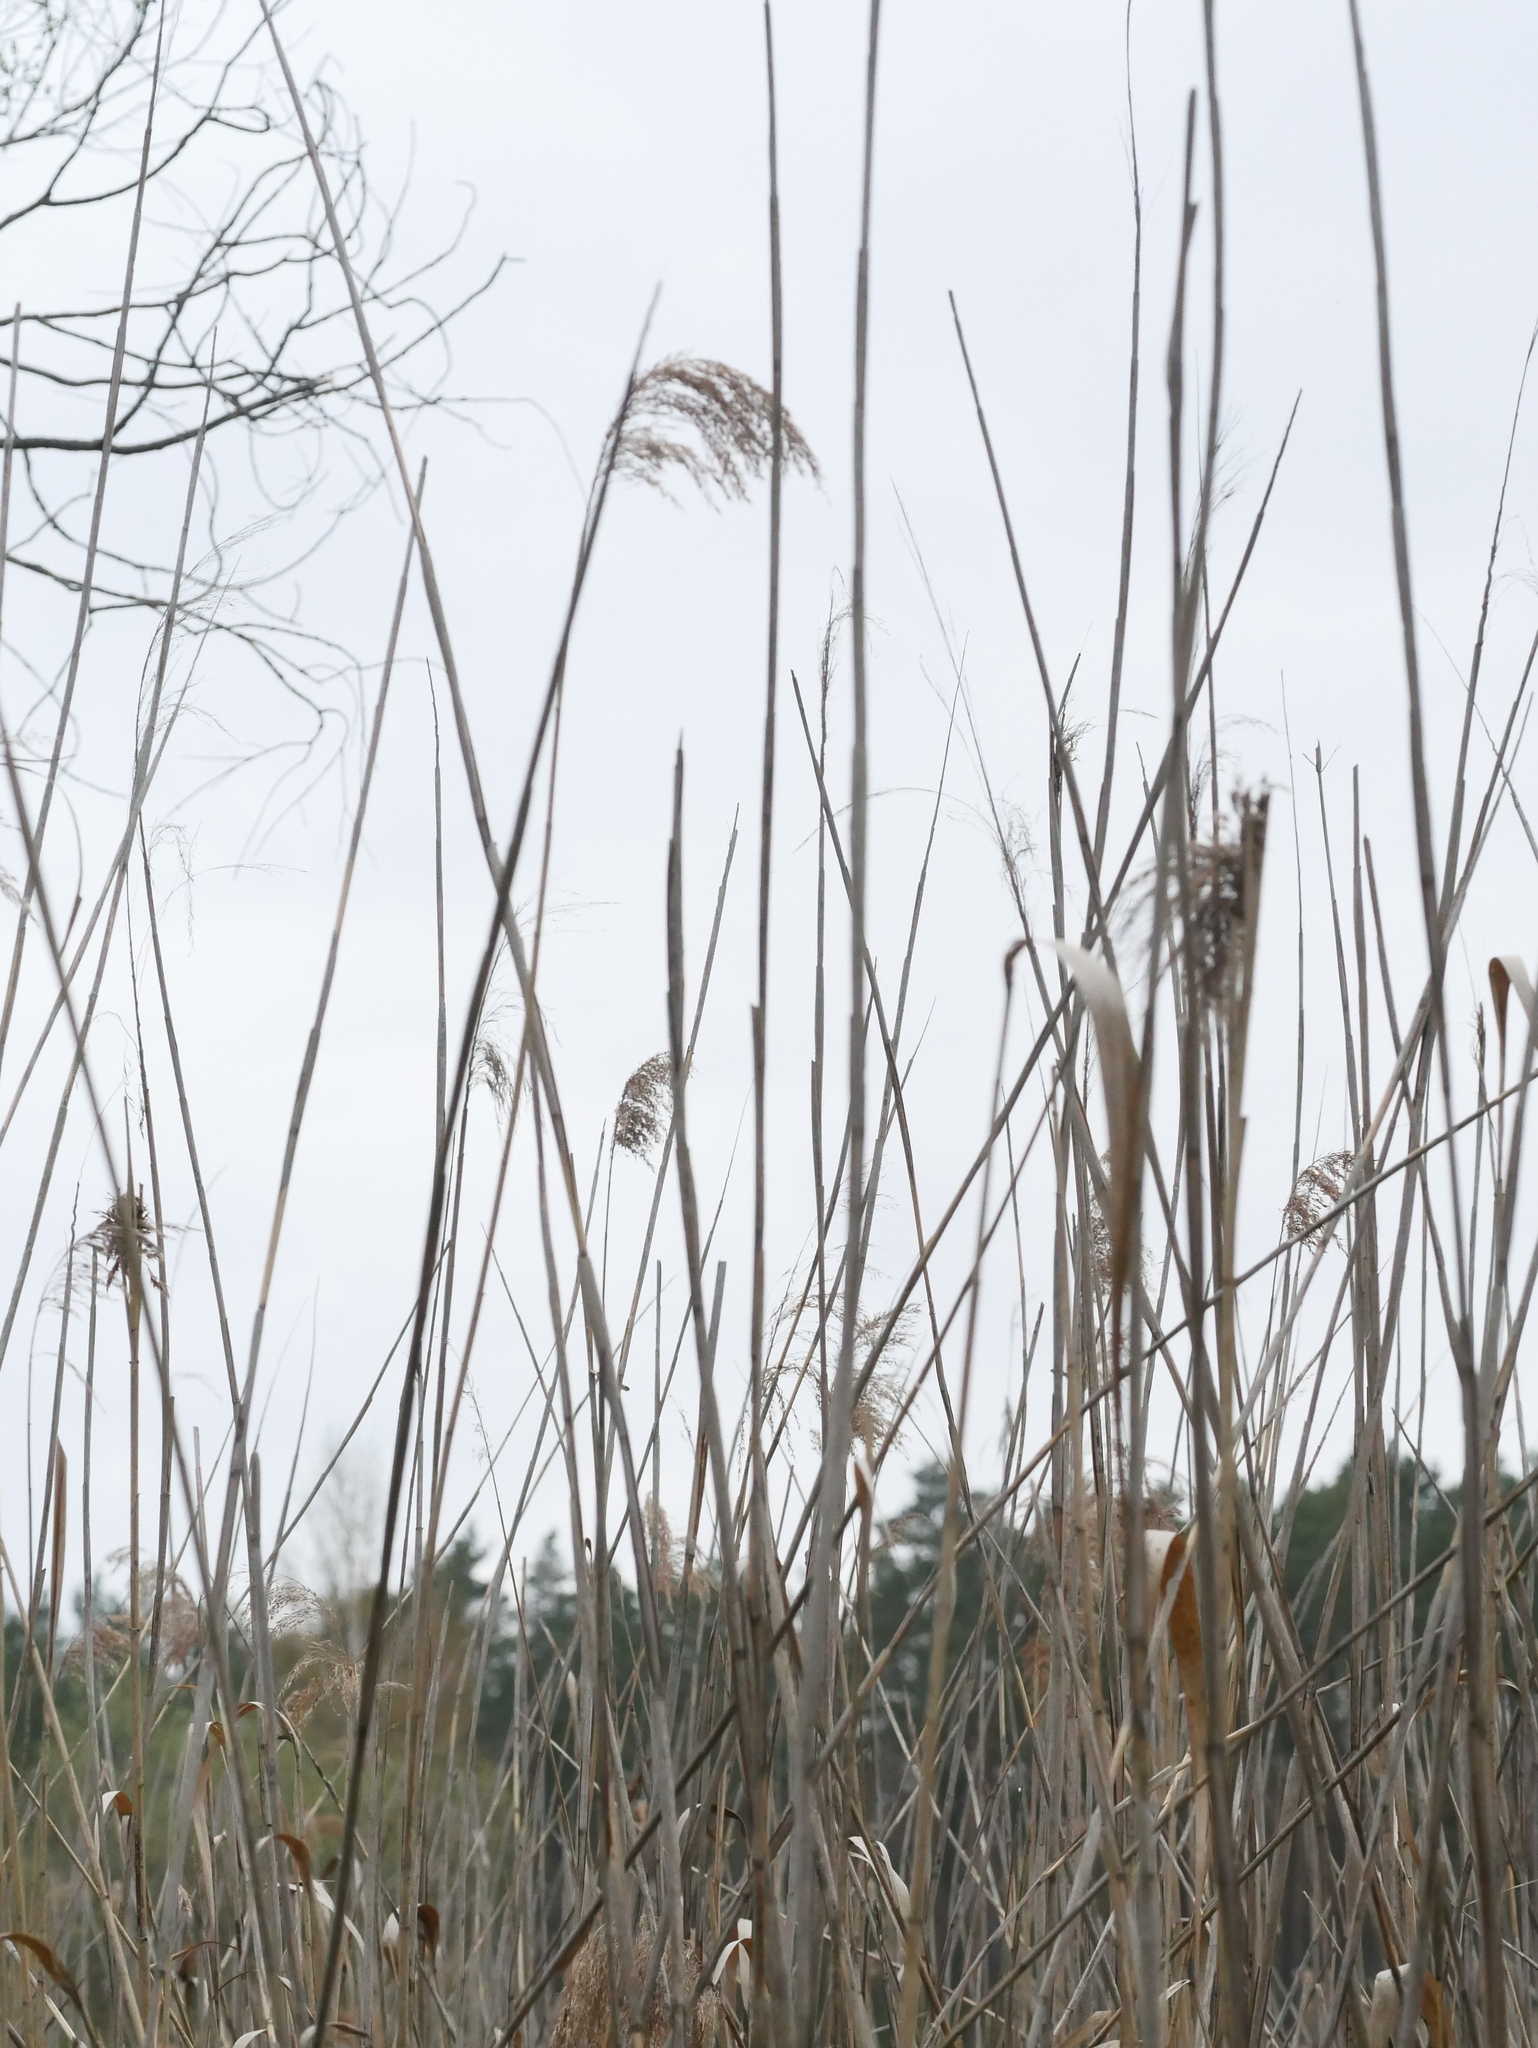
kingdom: Plantae
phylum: Tracheophyta
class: Liliopsida
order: Poales
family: Poaceae
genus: Phragmites
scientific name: Phragmites australis
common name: Common reed
